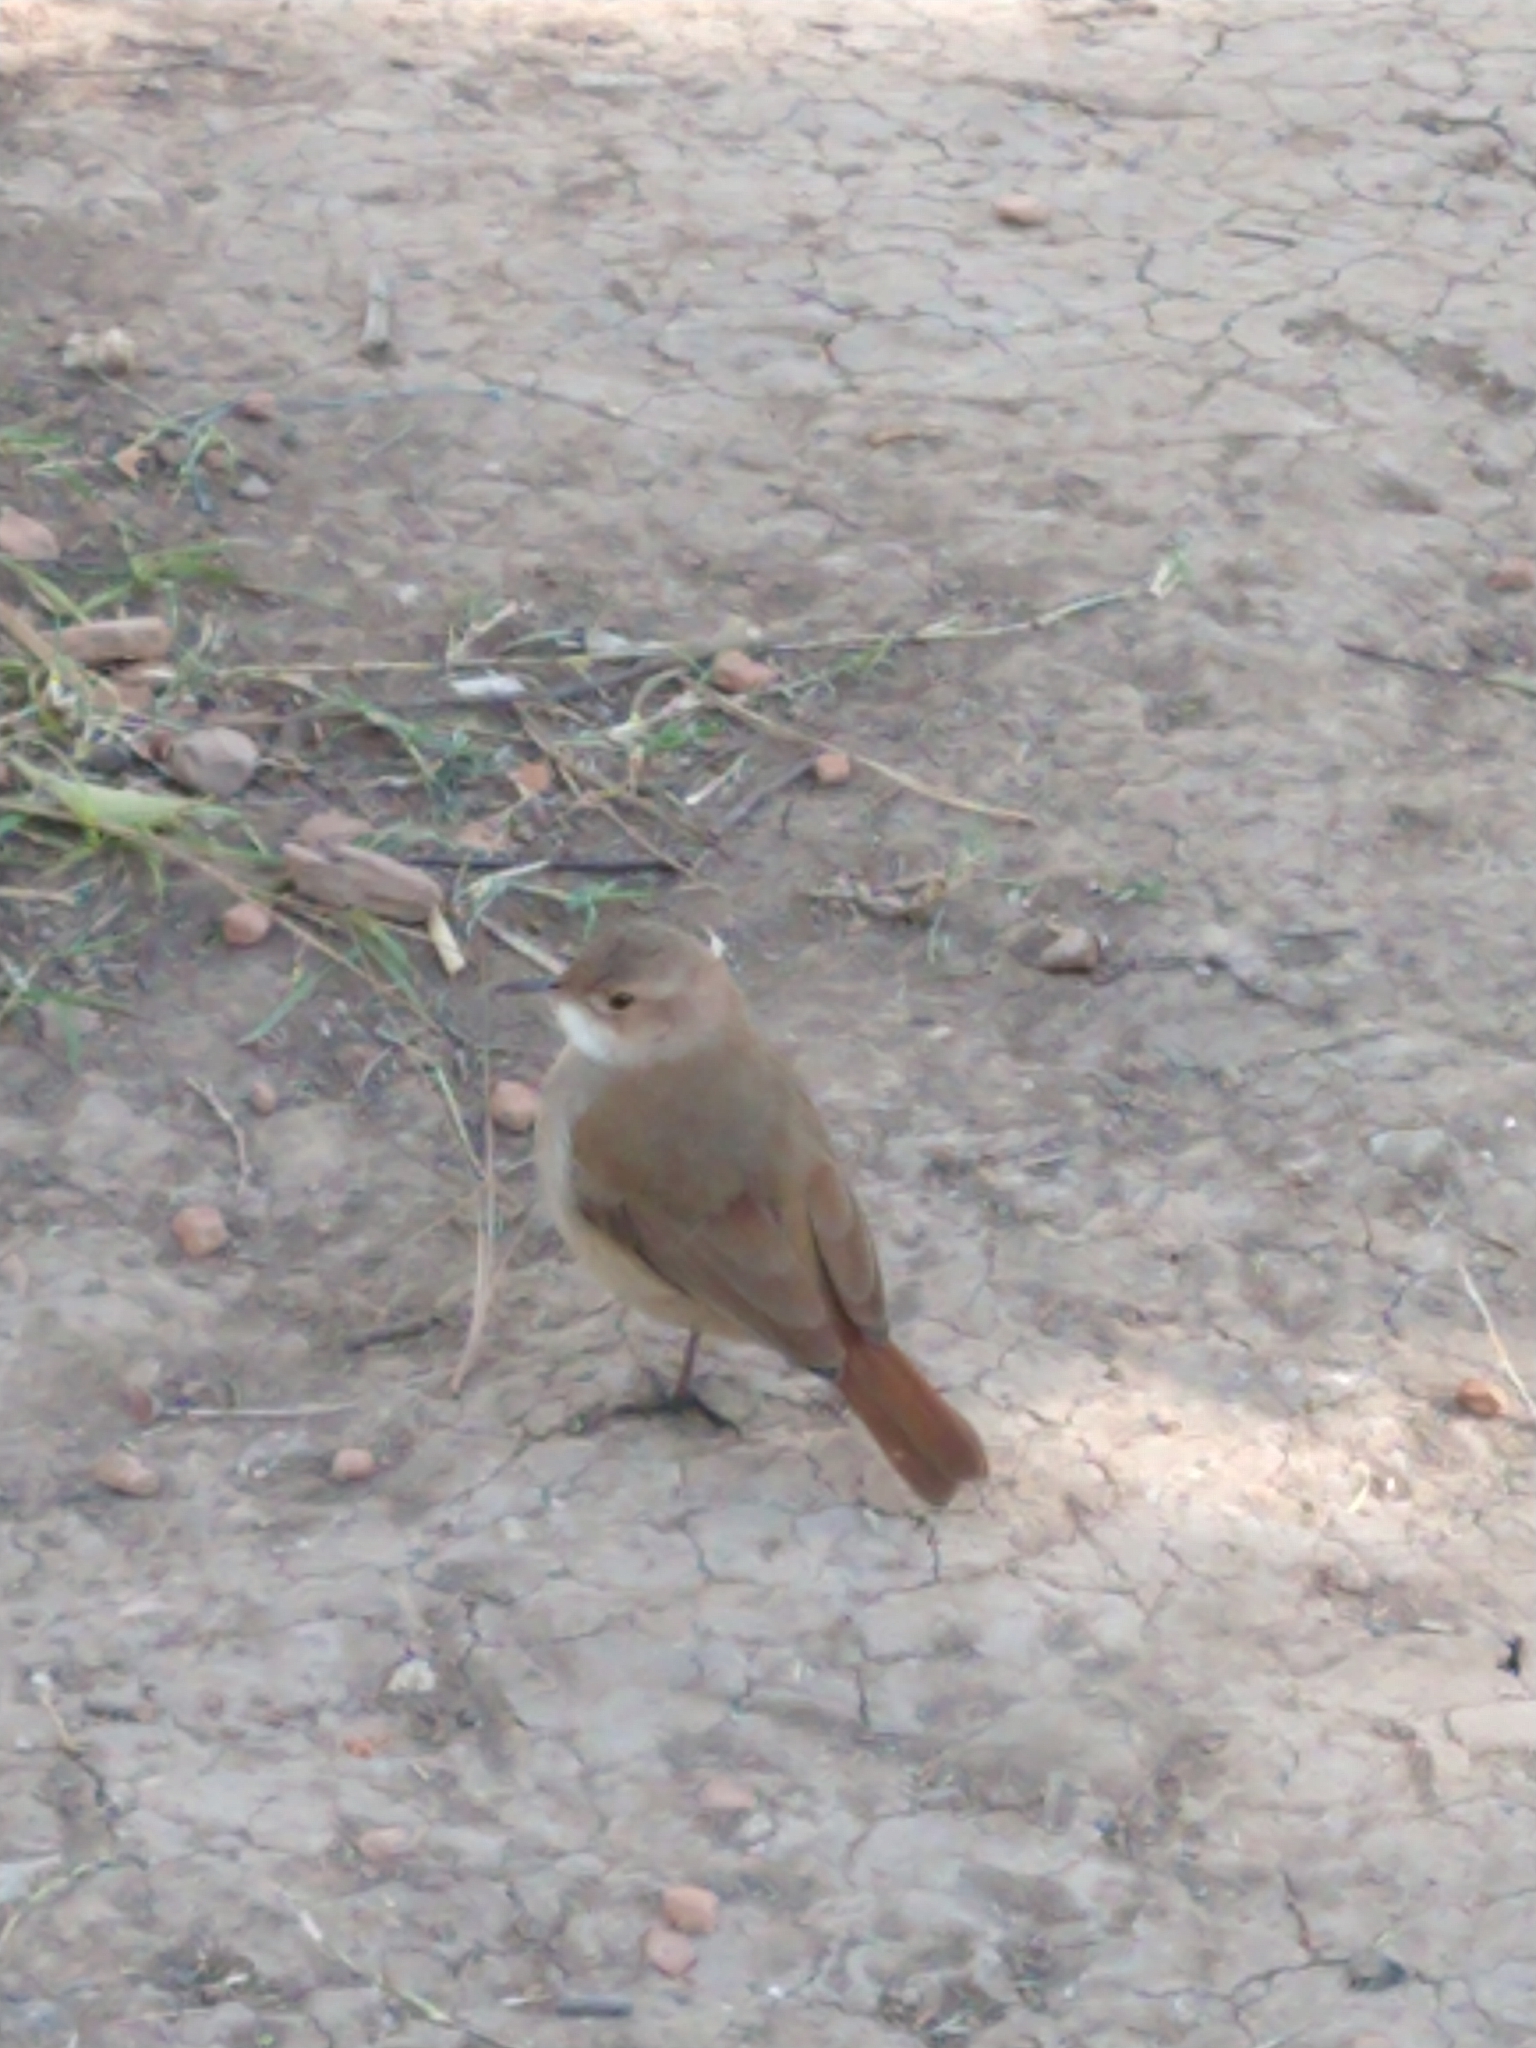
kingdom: Animalia
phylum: Chordata
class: Aves
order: Passeriformes
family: Furnariidae
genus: Furnarius
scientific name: Furnarius rufus
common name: Rufous hornero
